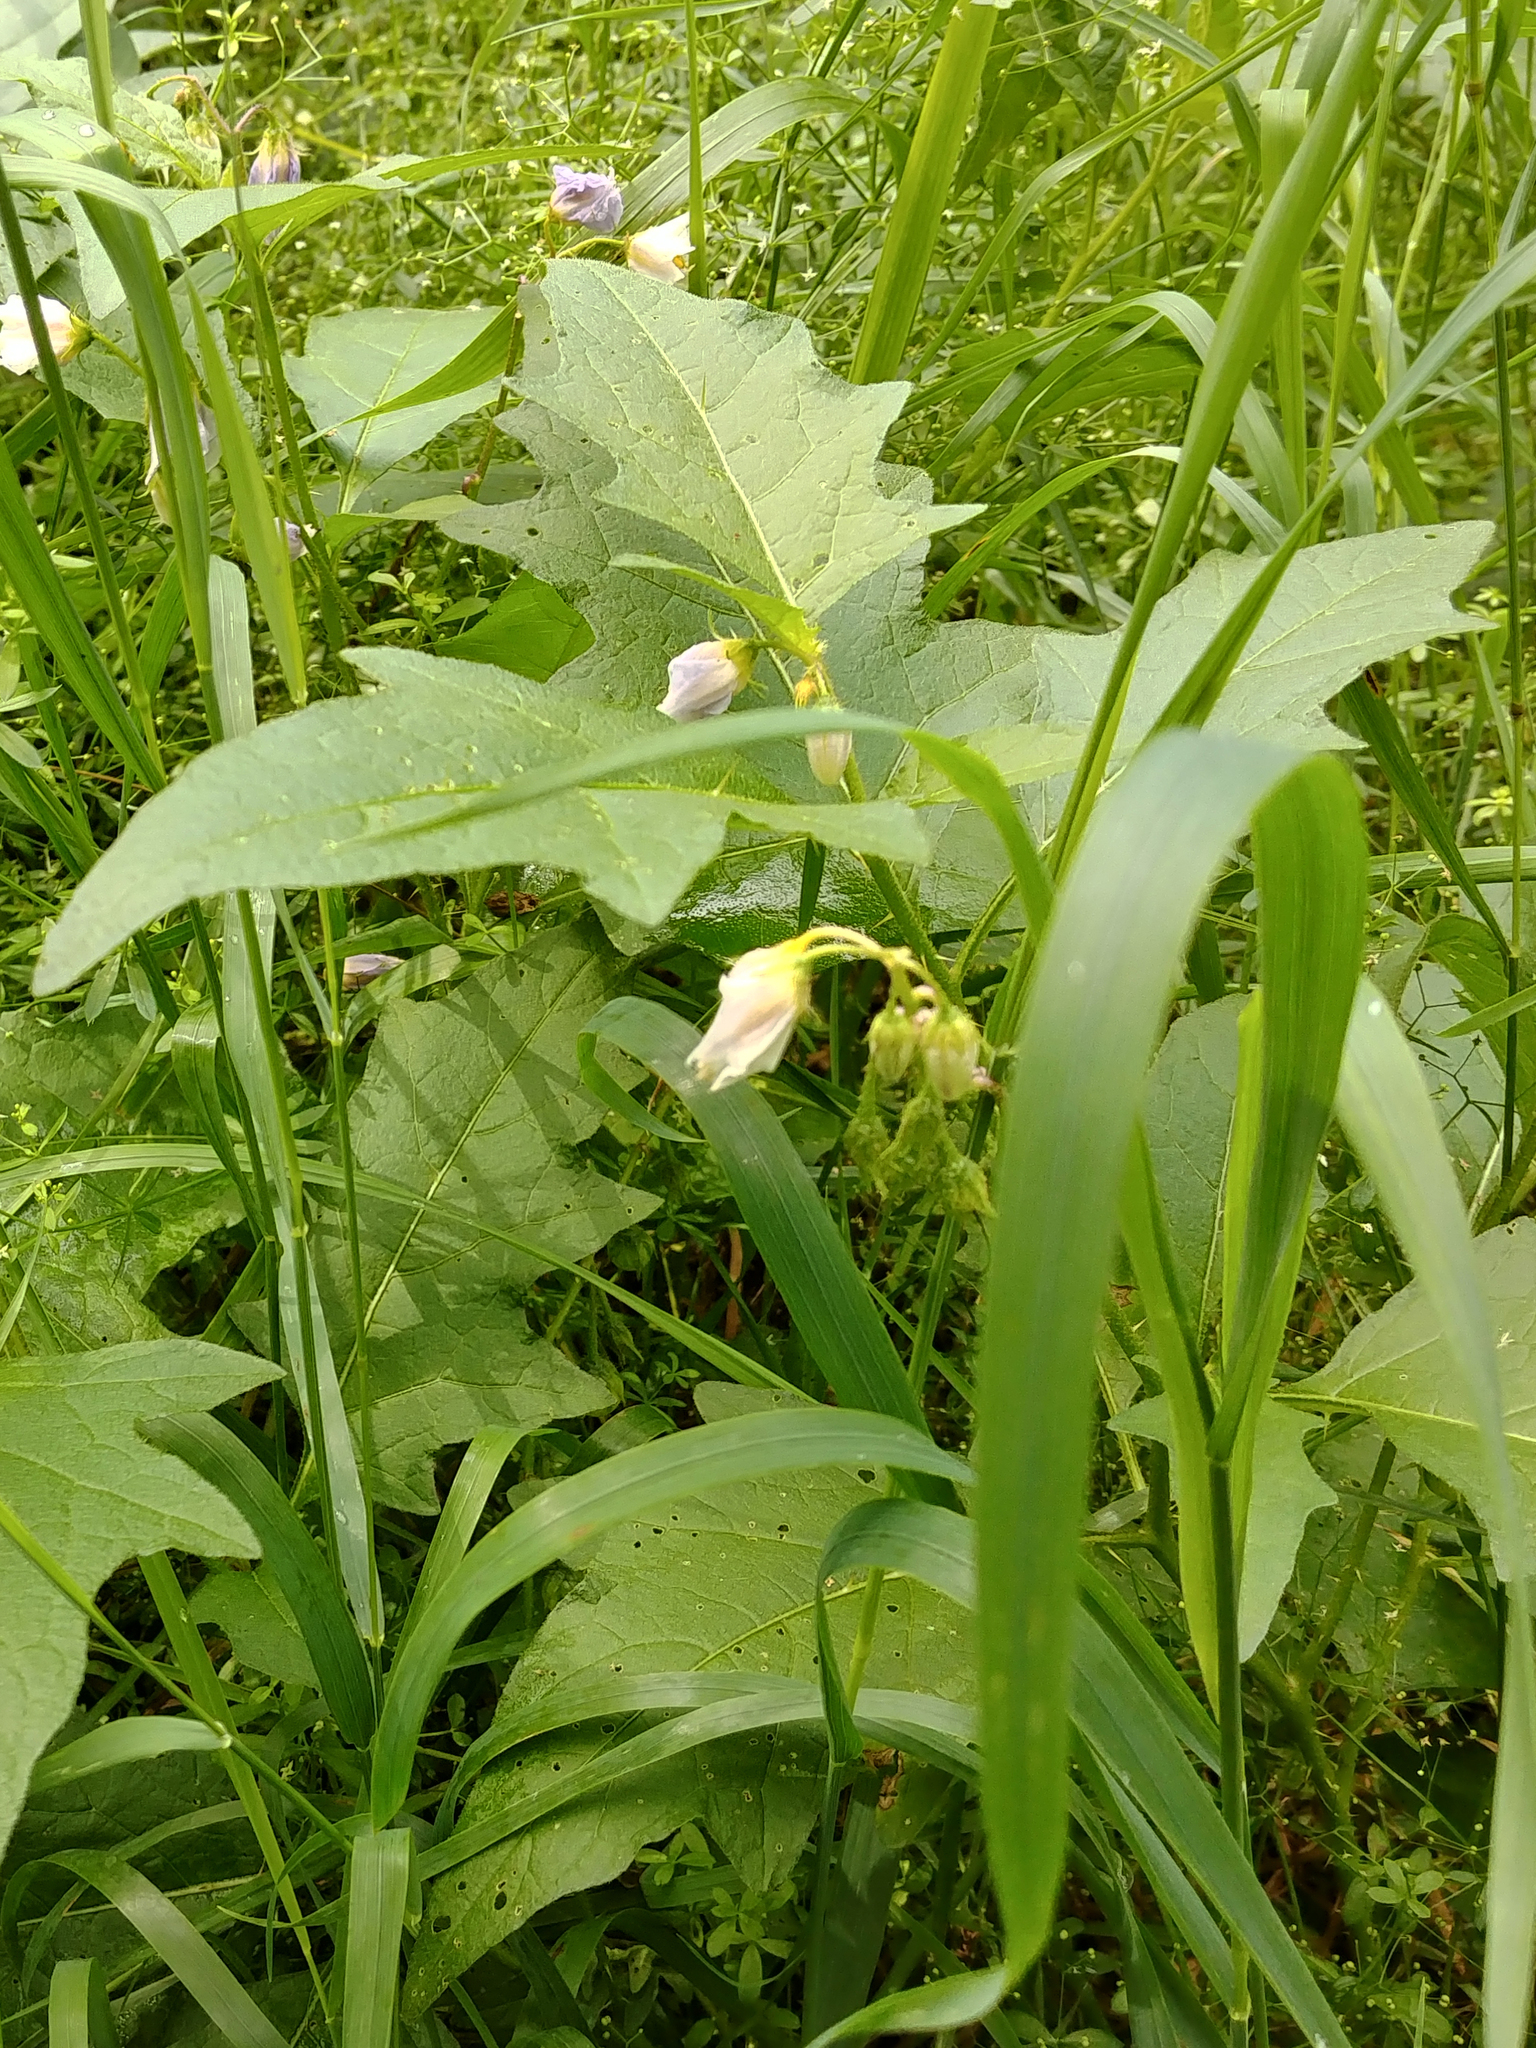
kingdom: Plantae
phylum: Tracheophyta
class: Magnoliopsida
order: Solanales
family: Solanaceae
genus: Solanum
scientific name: Solanum carolinense
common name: Horse-nettle
